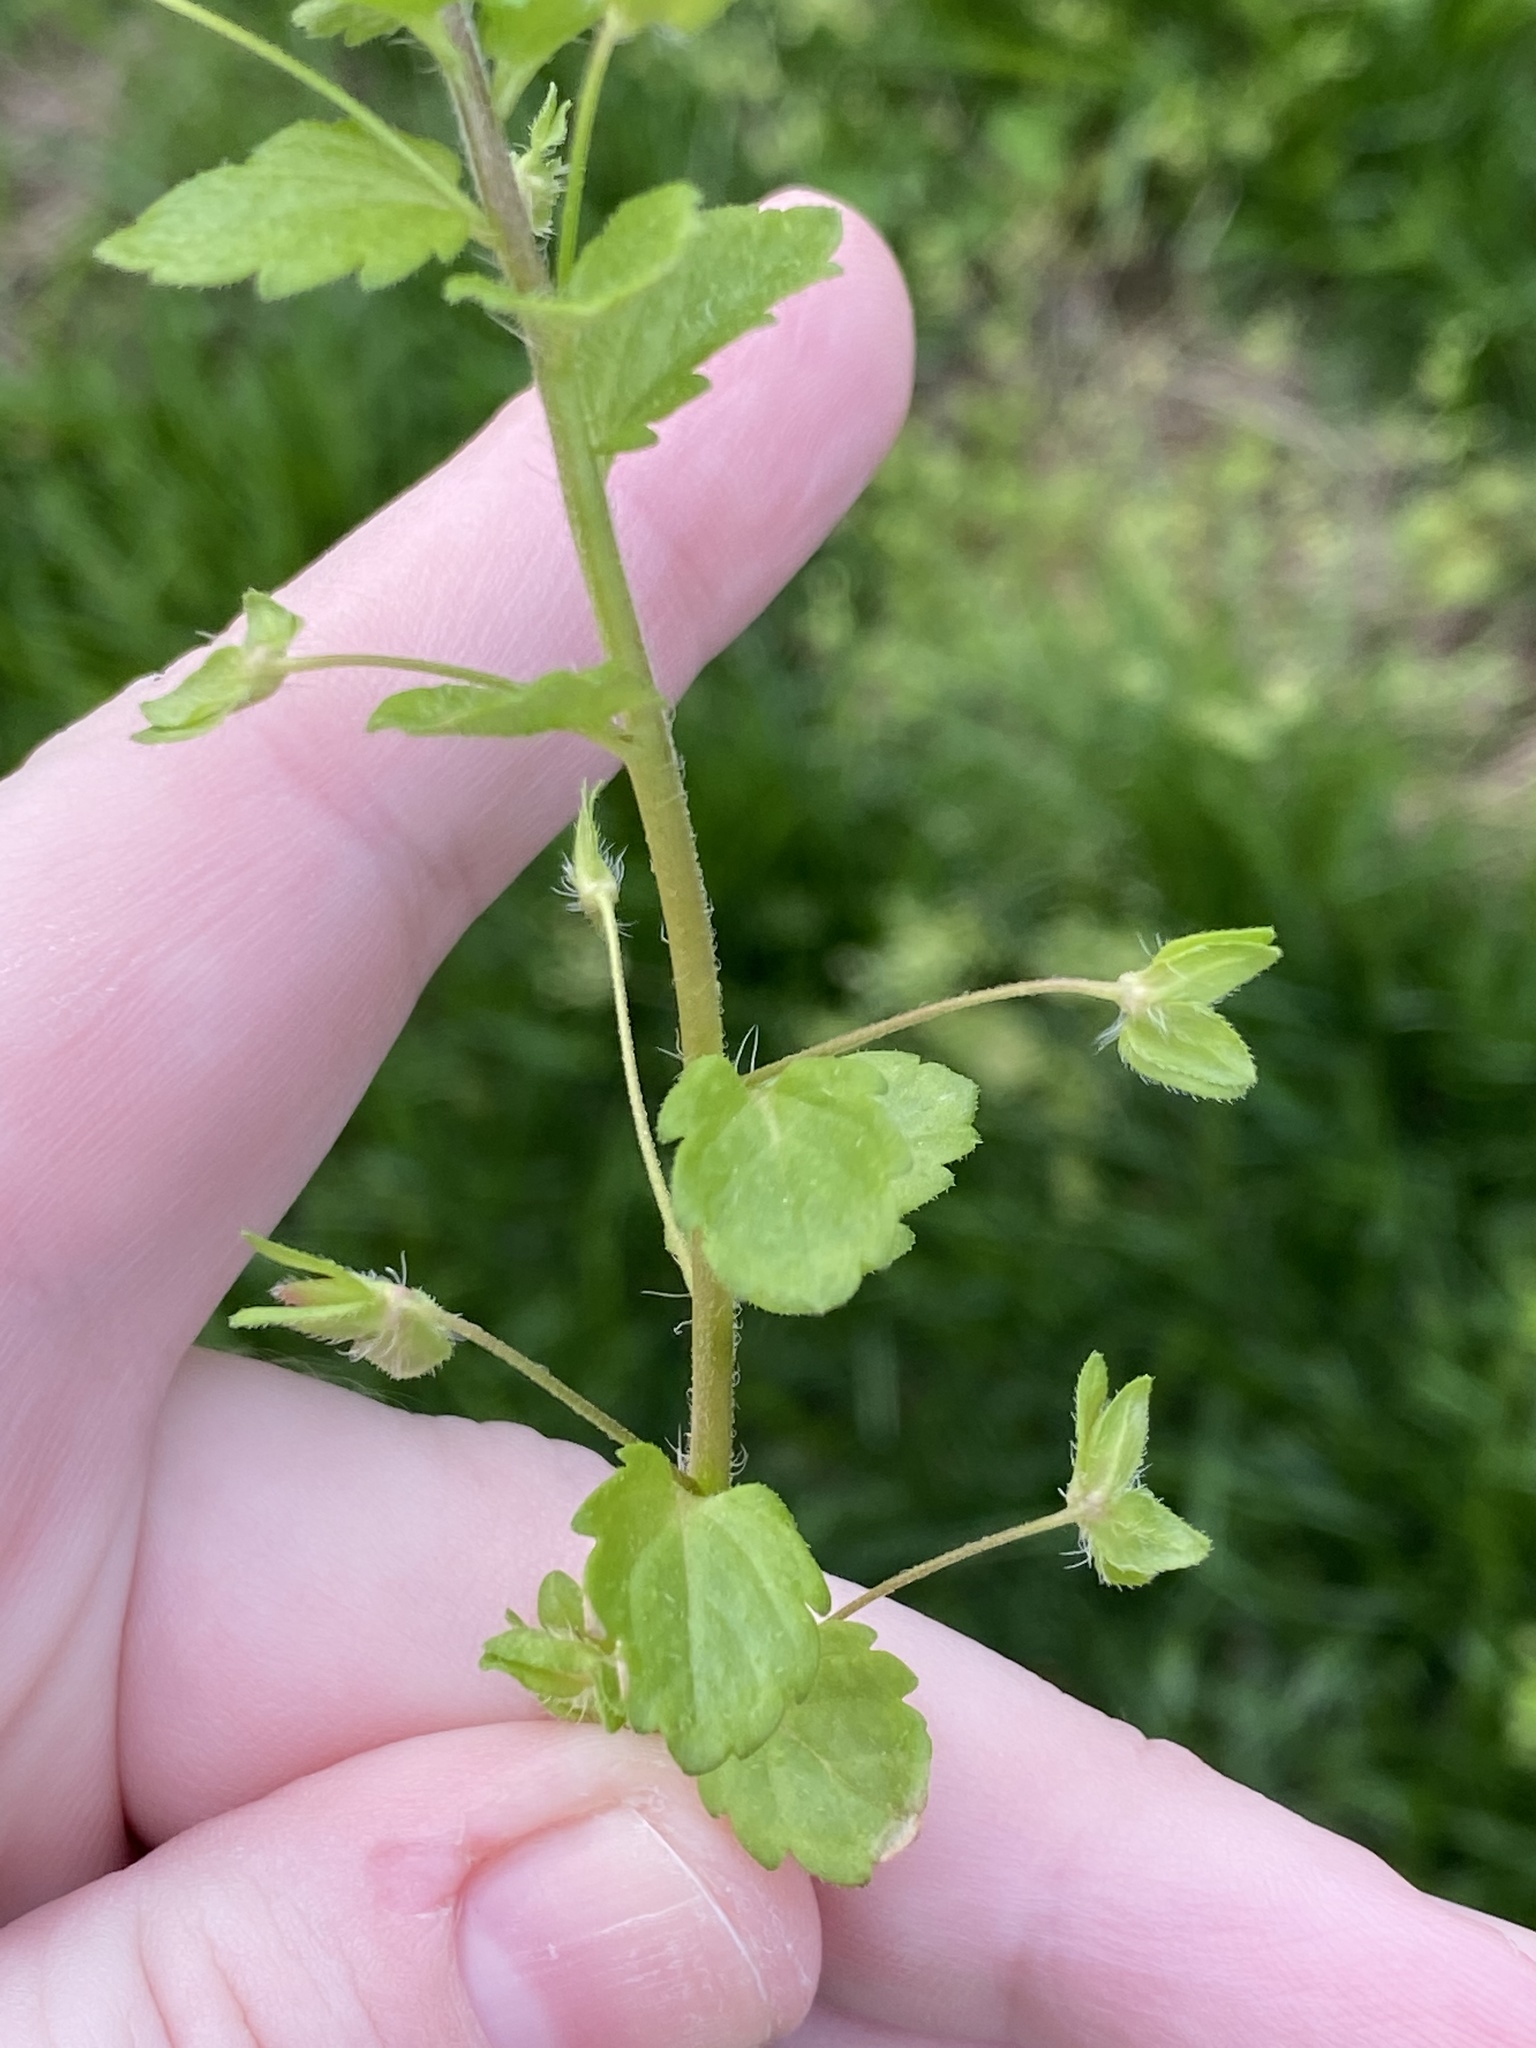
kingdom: Plantae
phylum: Tracheophyta
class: Magnoliopsida
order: Lamiales
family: Plantaginaceae
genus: Veronica
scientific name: Veronica persica
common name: Common field-speedwell
